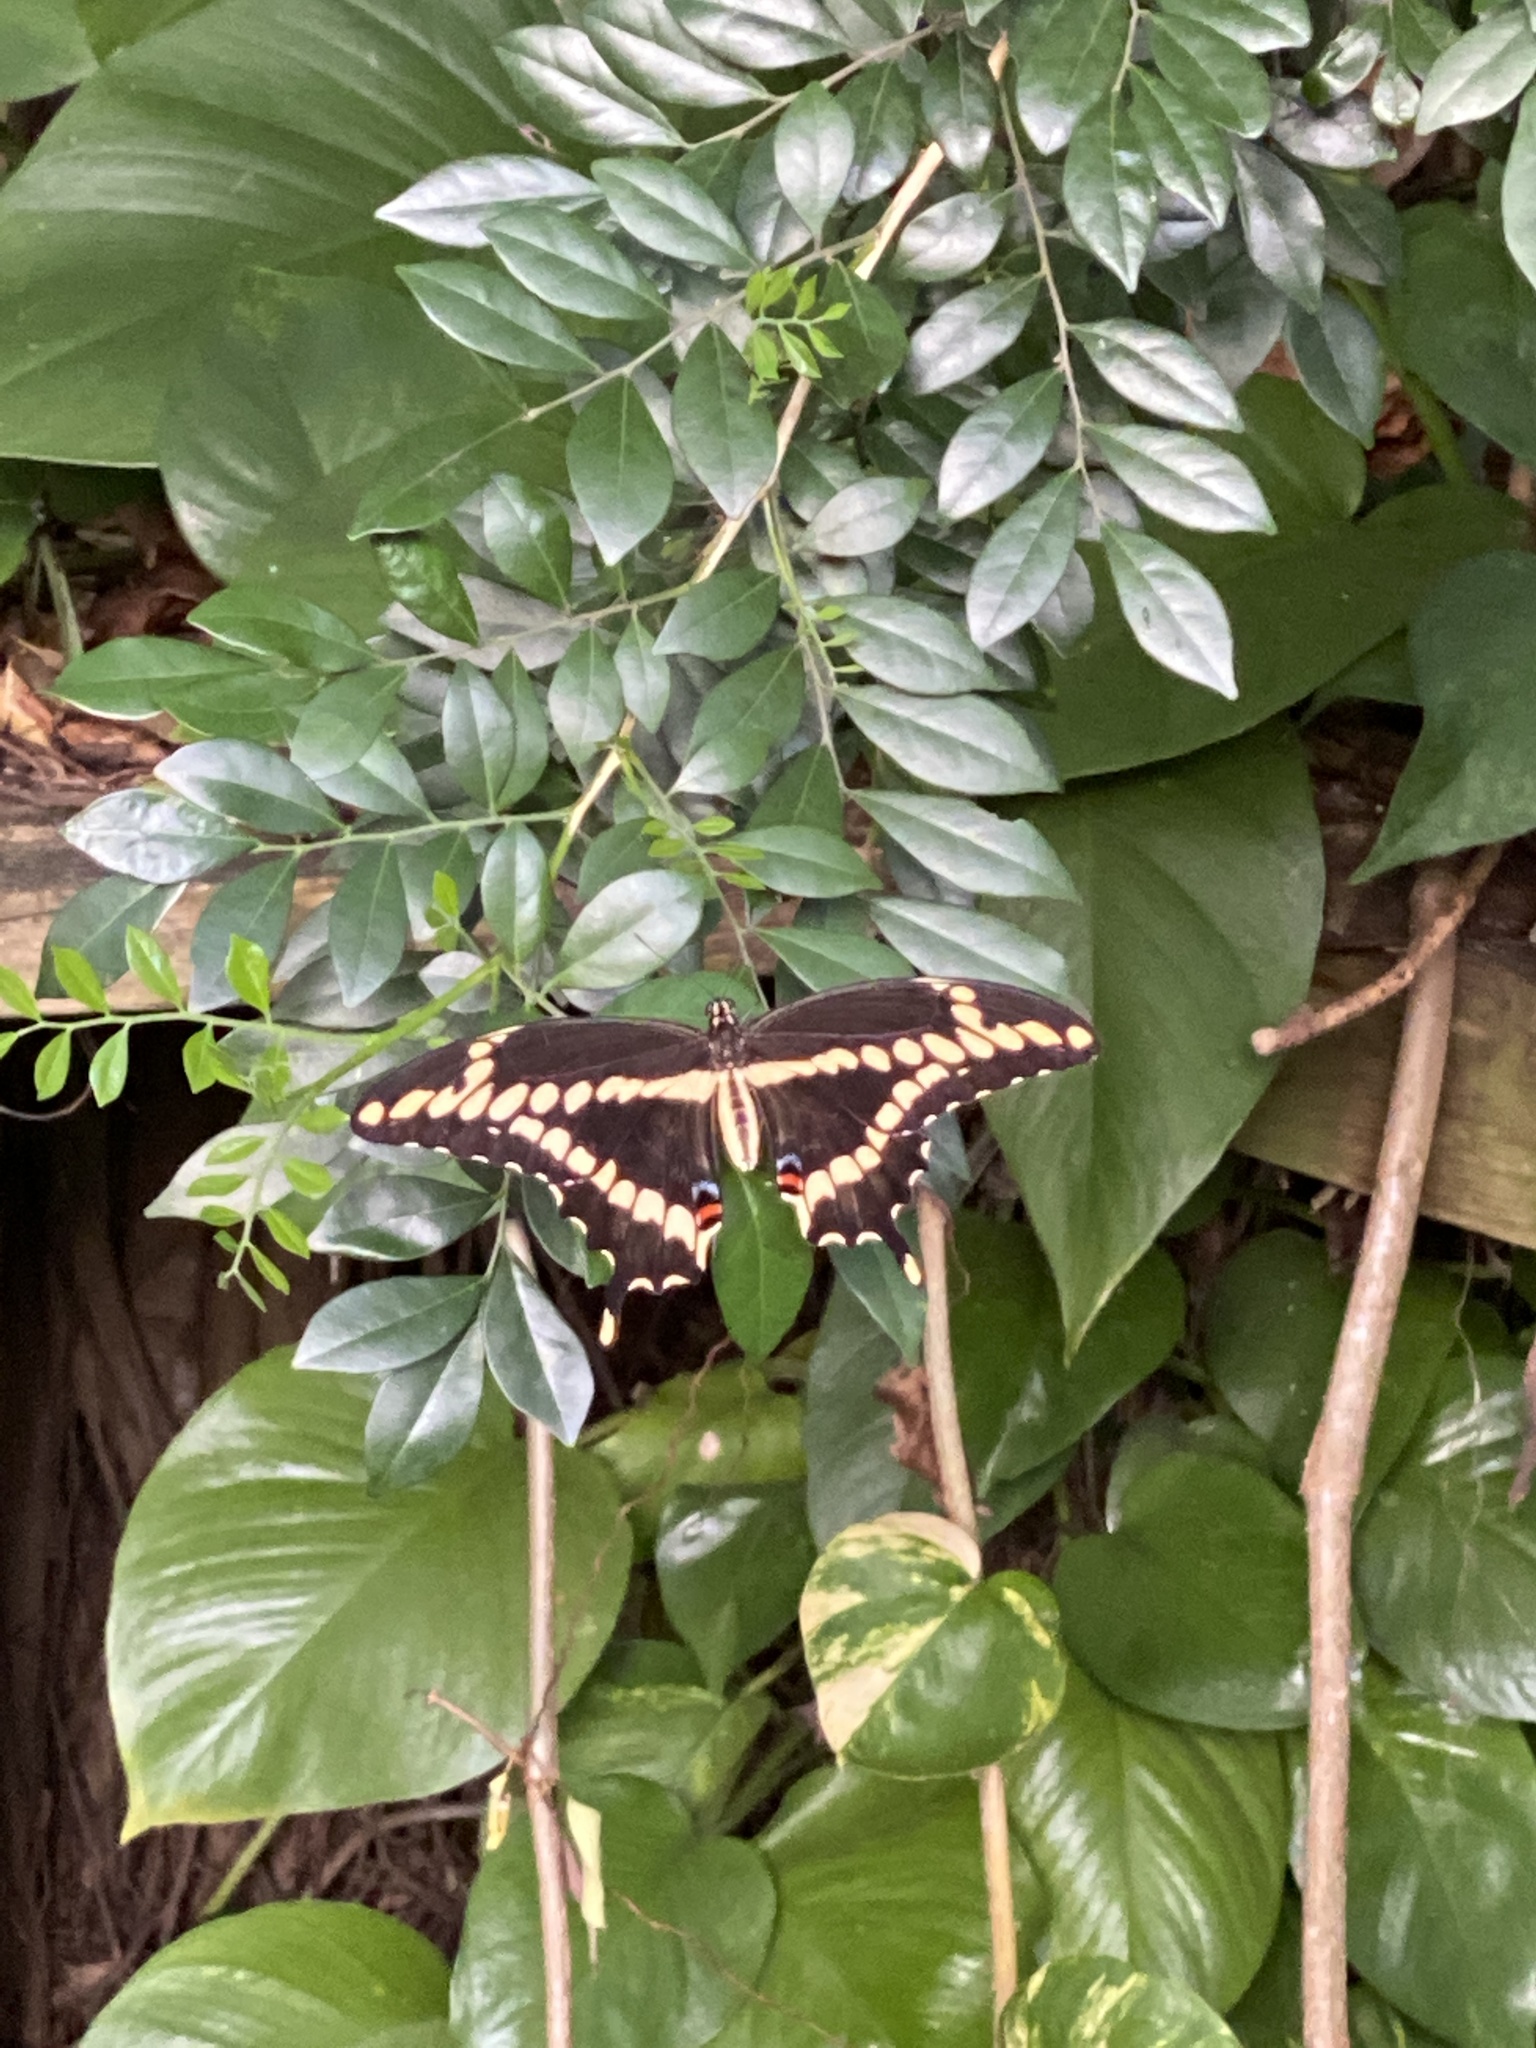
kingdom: Animalia
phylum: Arthropoda
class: Insecta
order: Lepidoptera
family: Papilionidae
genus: Papilio
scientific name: Papilio cresphontes
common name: Giant swallowtail
